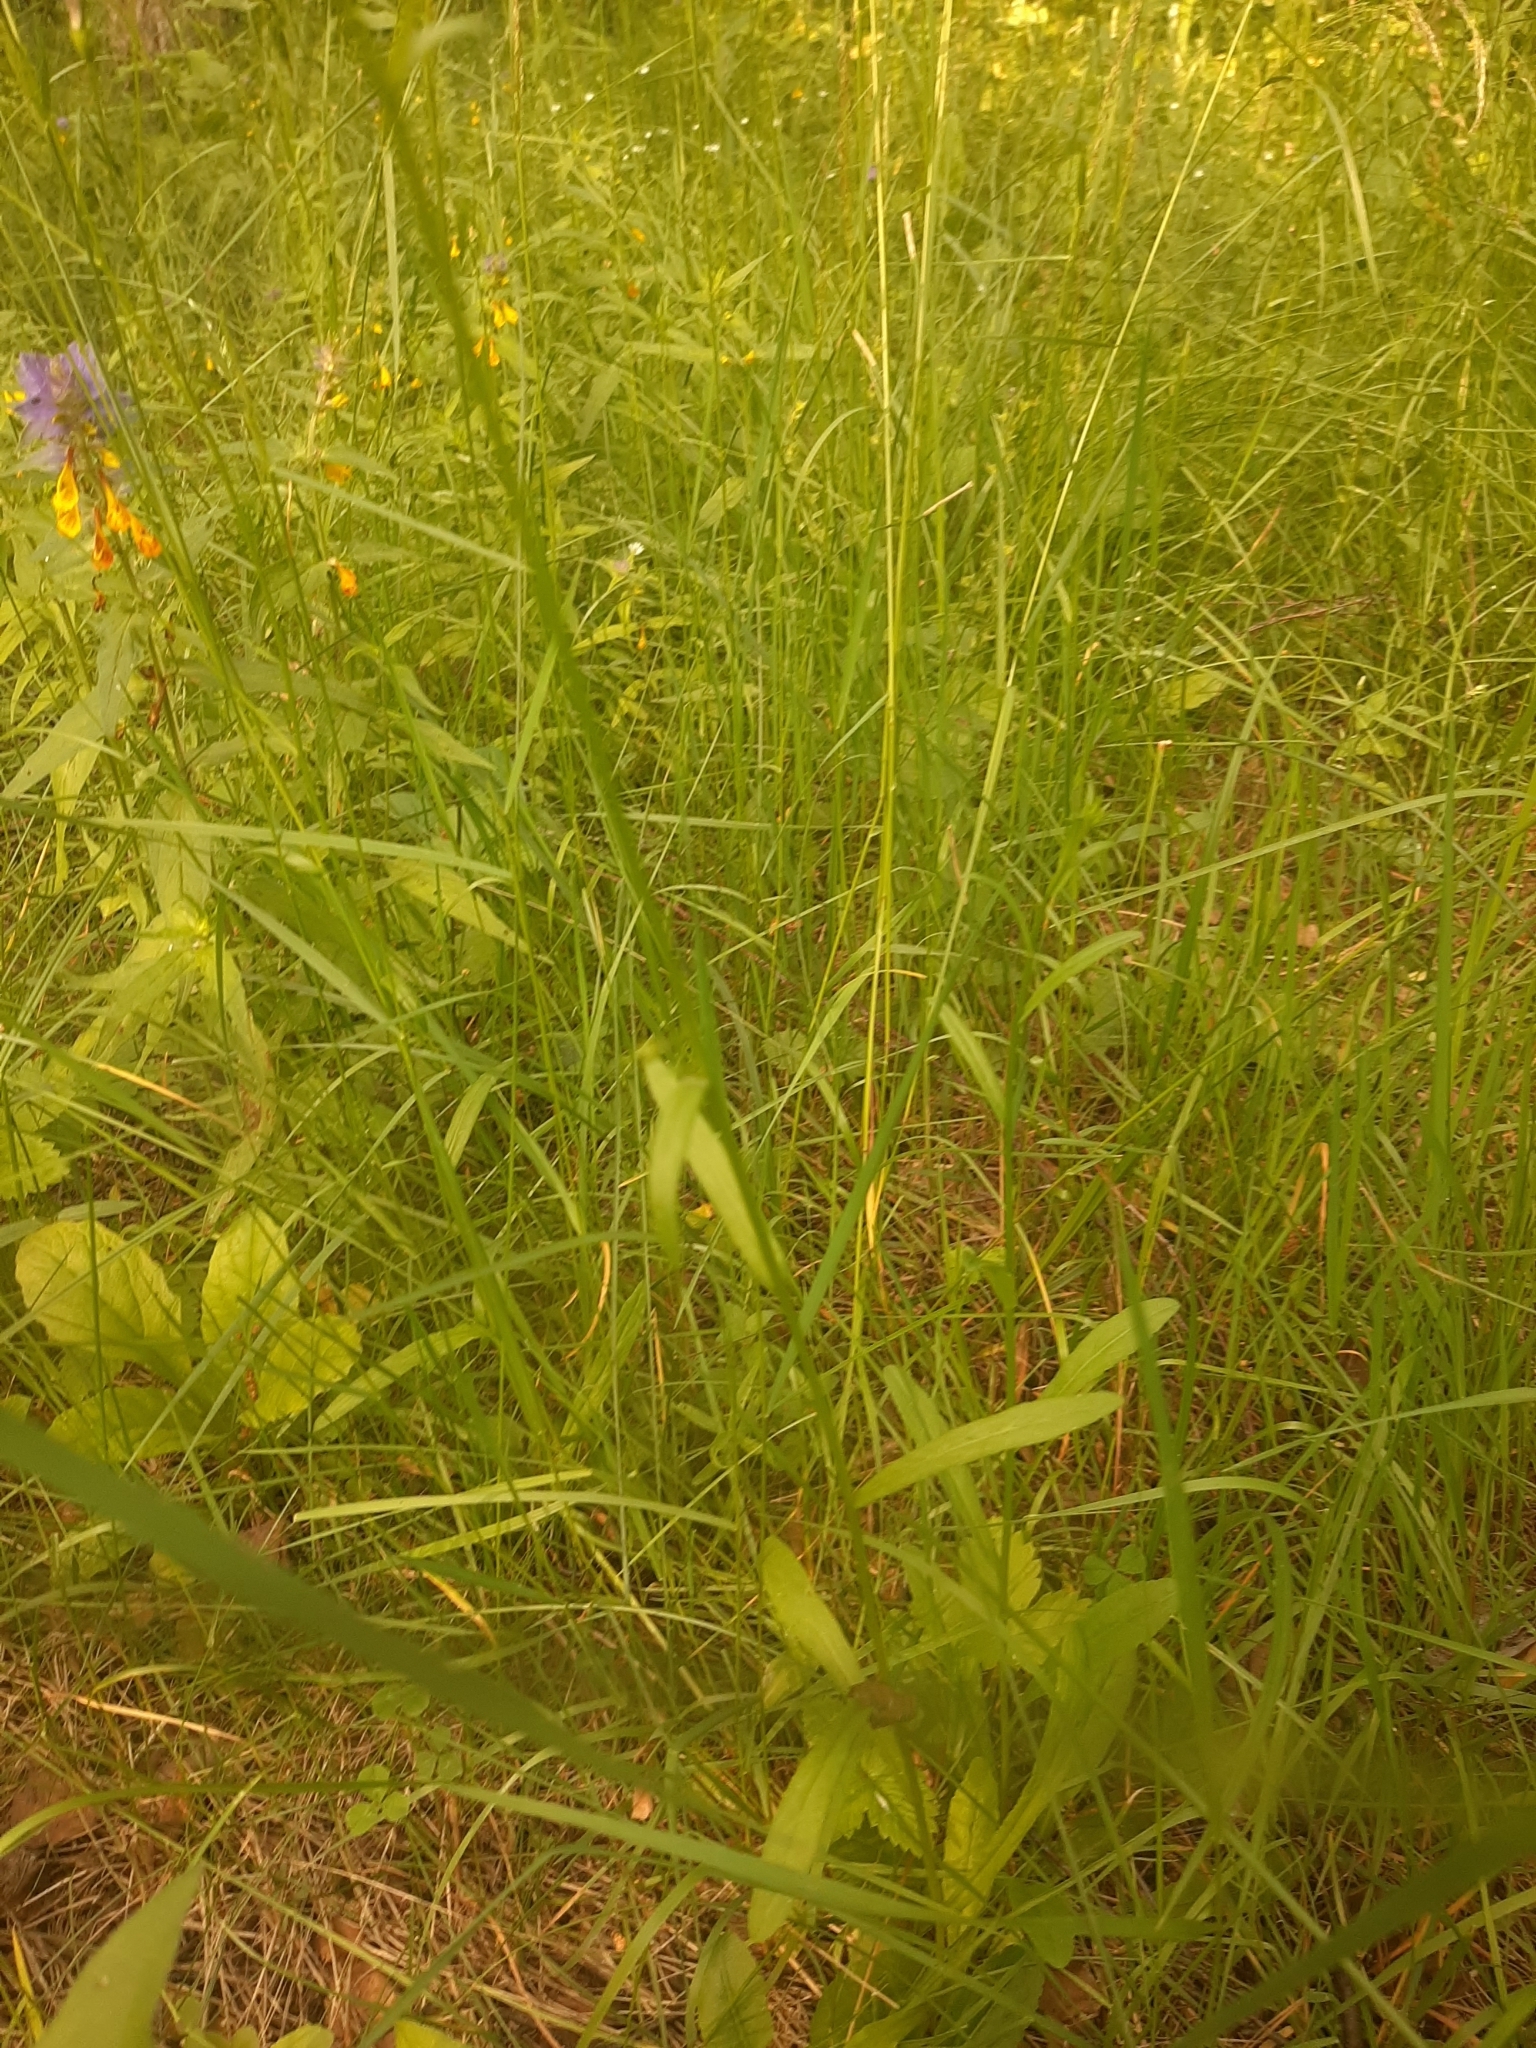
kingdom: Plantae
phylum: Tracheophyta
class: Magnoliopsida
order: Asterales
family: Campanulaceae
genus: Campanula
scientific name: Campanula patula
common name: Spreading bellflower
